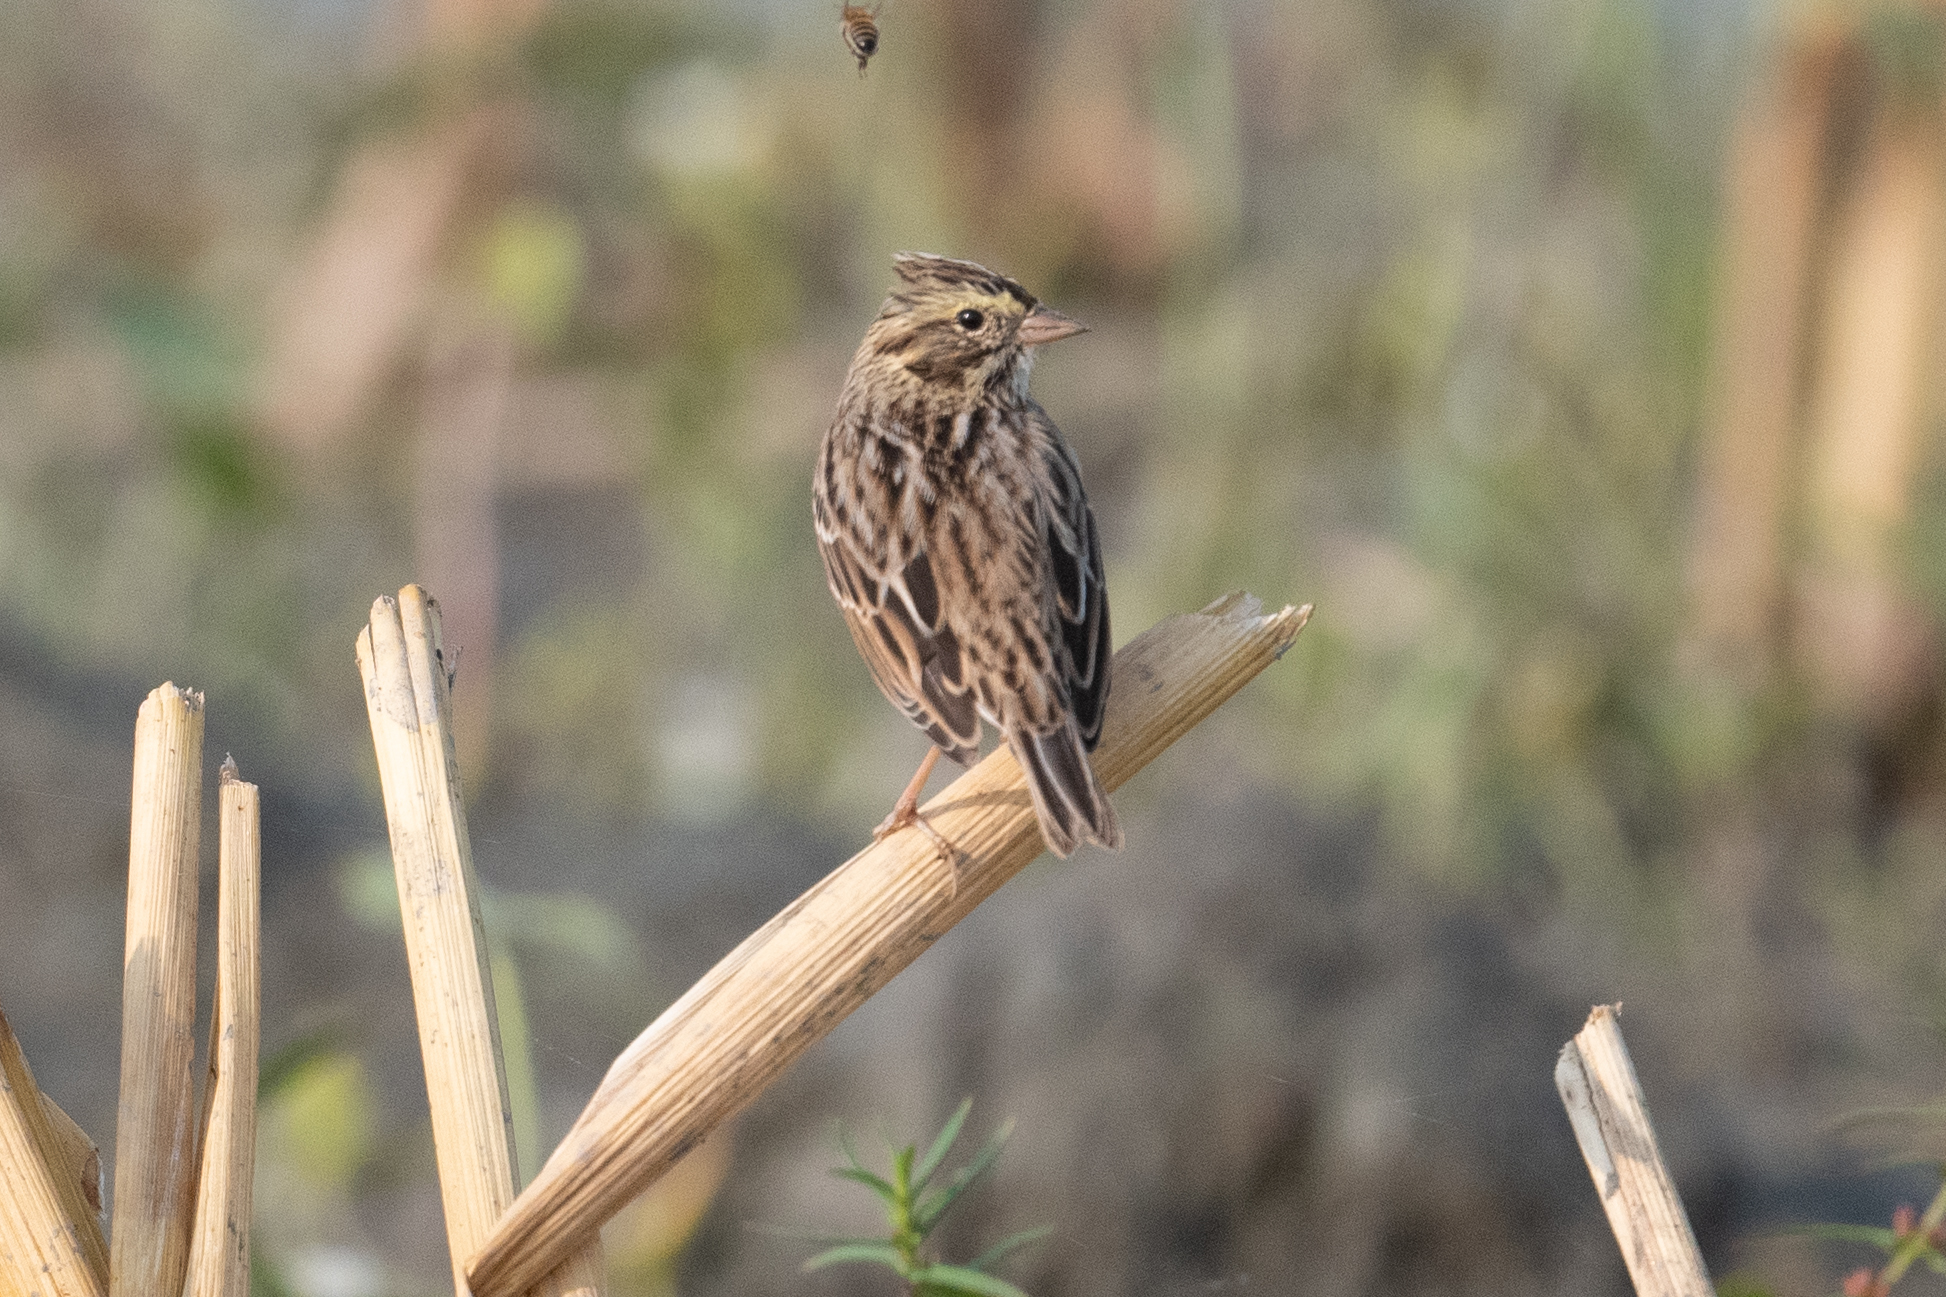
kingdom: Animalia
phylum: Chordata
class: Aves
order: Passeriformes
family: Passerellidae
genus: Passerculus
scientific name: Passerculus sandwichensis
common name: Savannah sparrow
